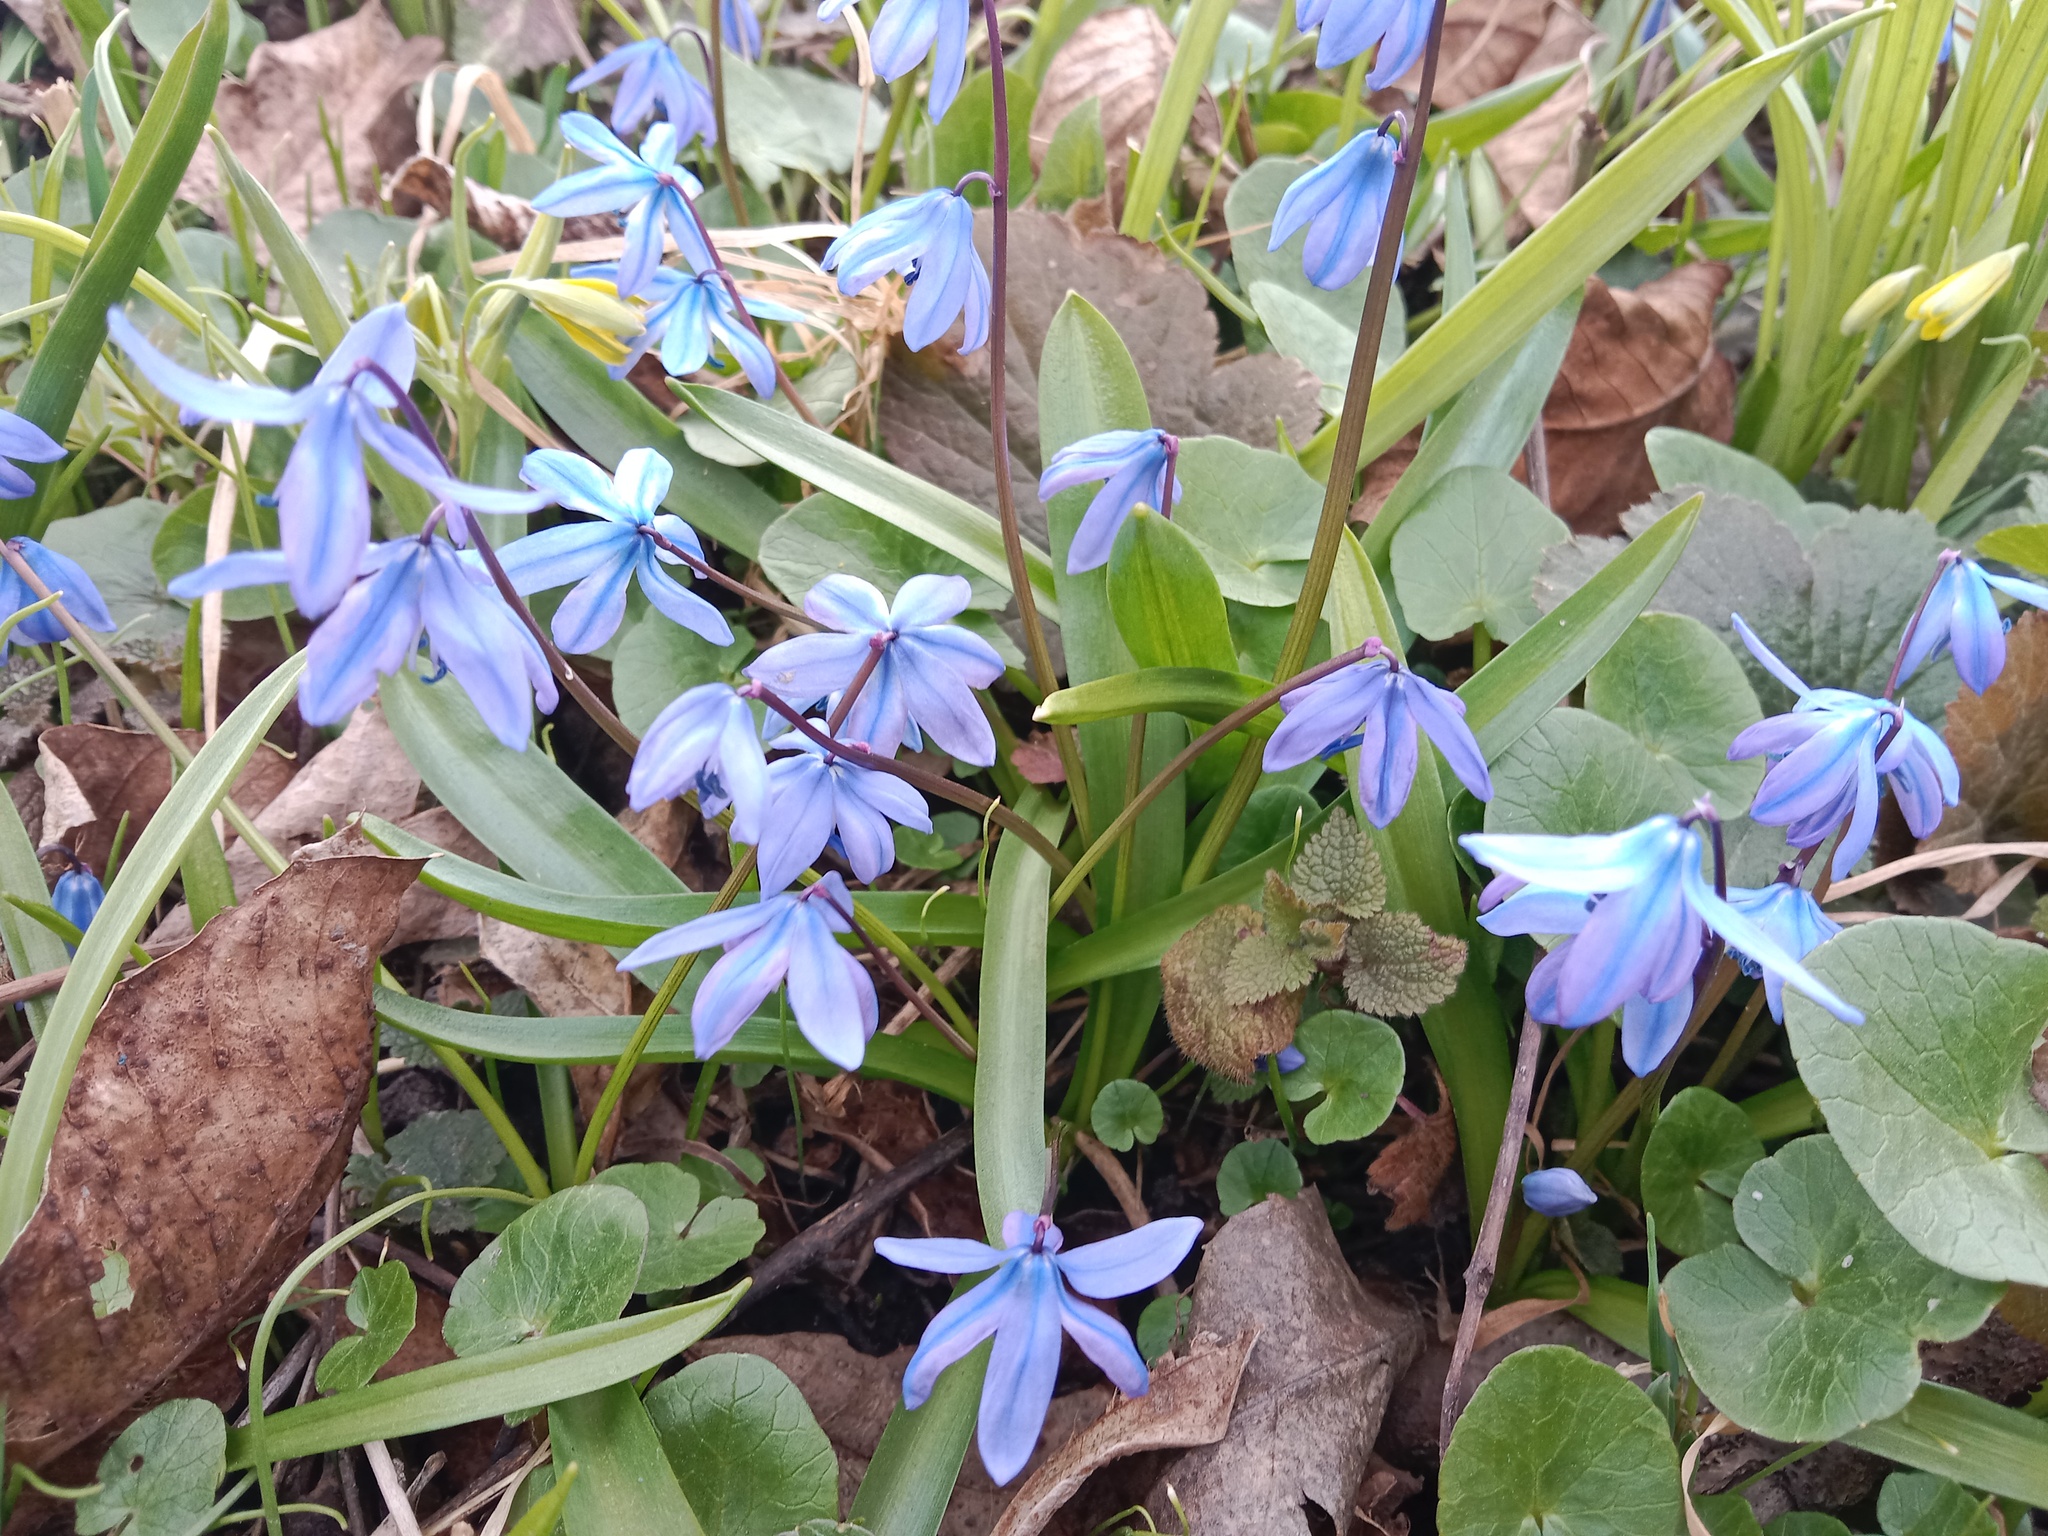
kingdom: Plantae
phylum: Tracheophyta
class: Liliopsida
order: Asparagales
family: Asparagaceae
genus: Scilla
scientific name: Scilla siberica
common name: Siberian squill
